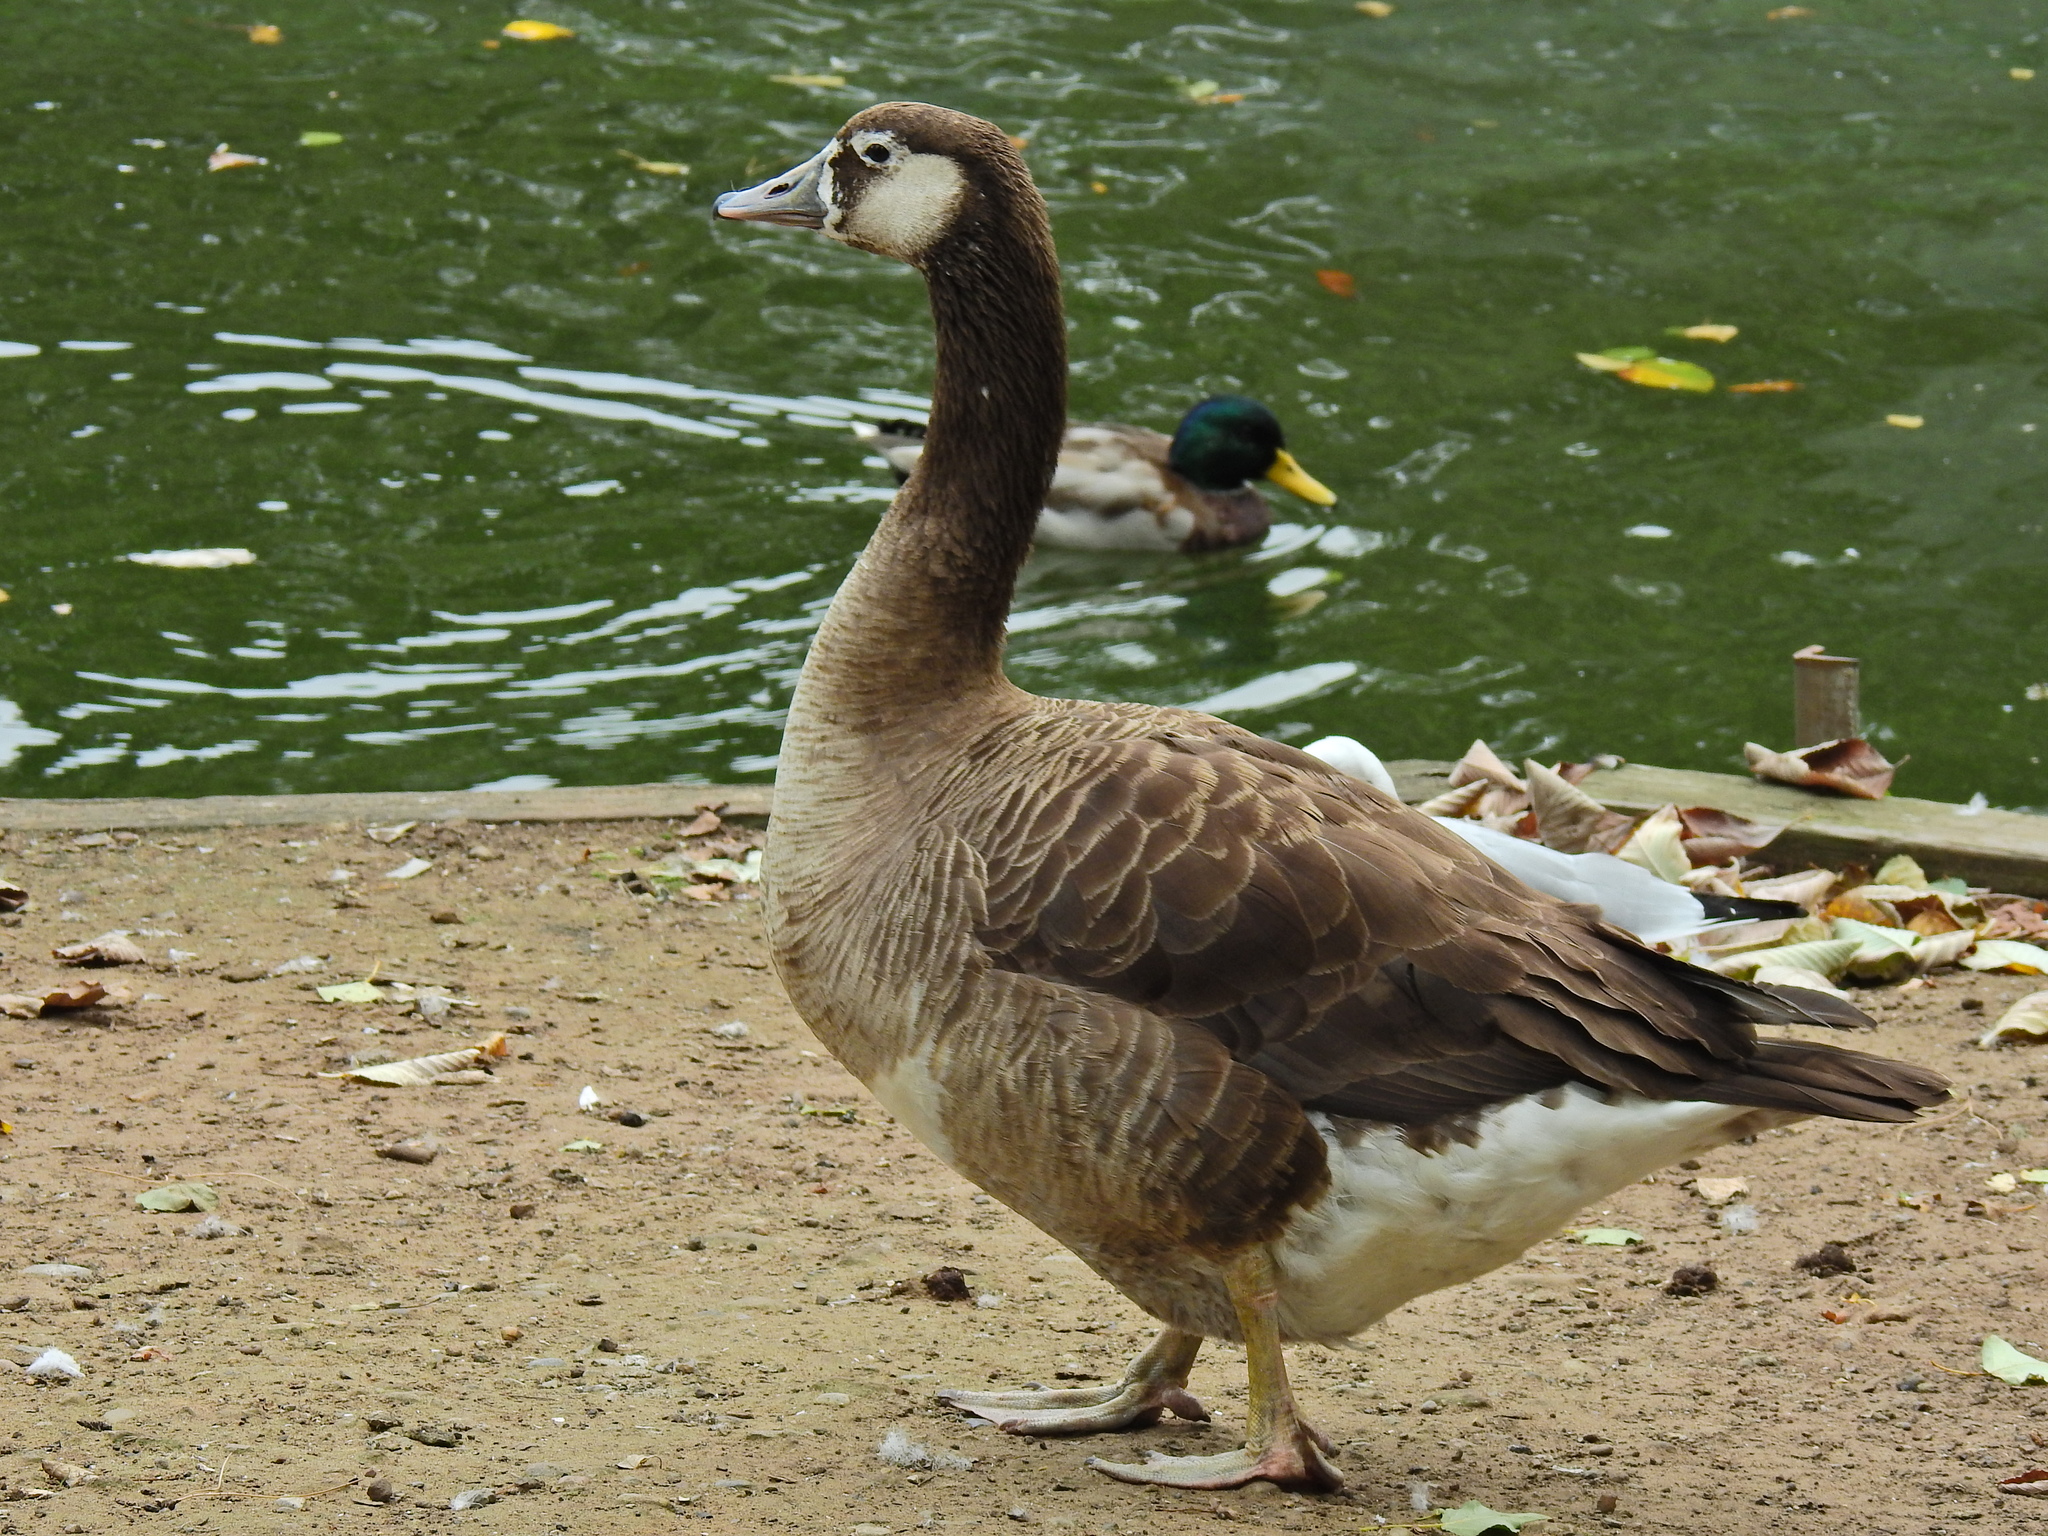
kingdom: Animalia
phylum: Chordata
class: Aves
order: Anseriformes
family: Anatidae
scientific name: Anatidae
